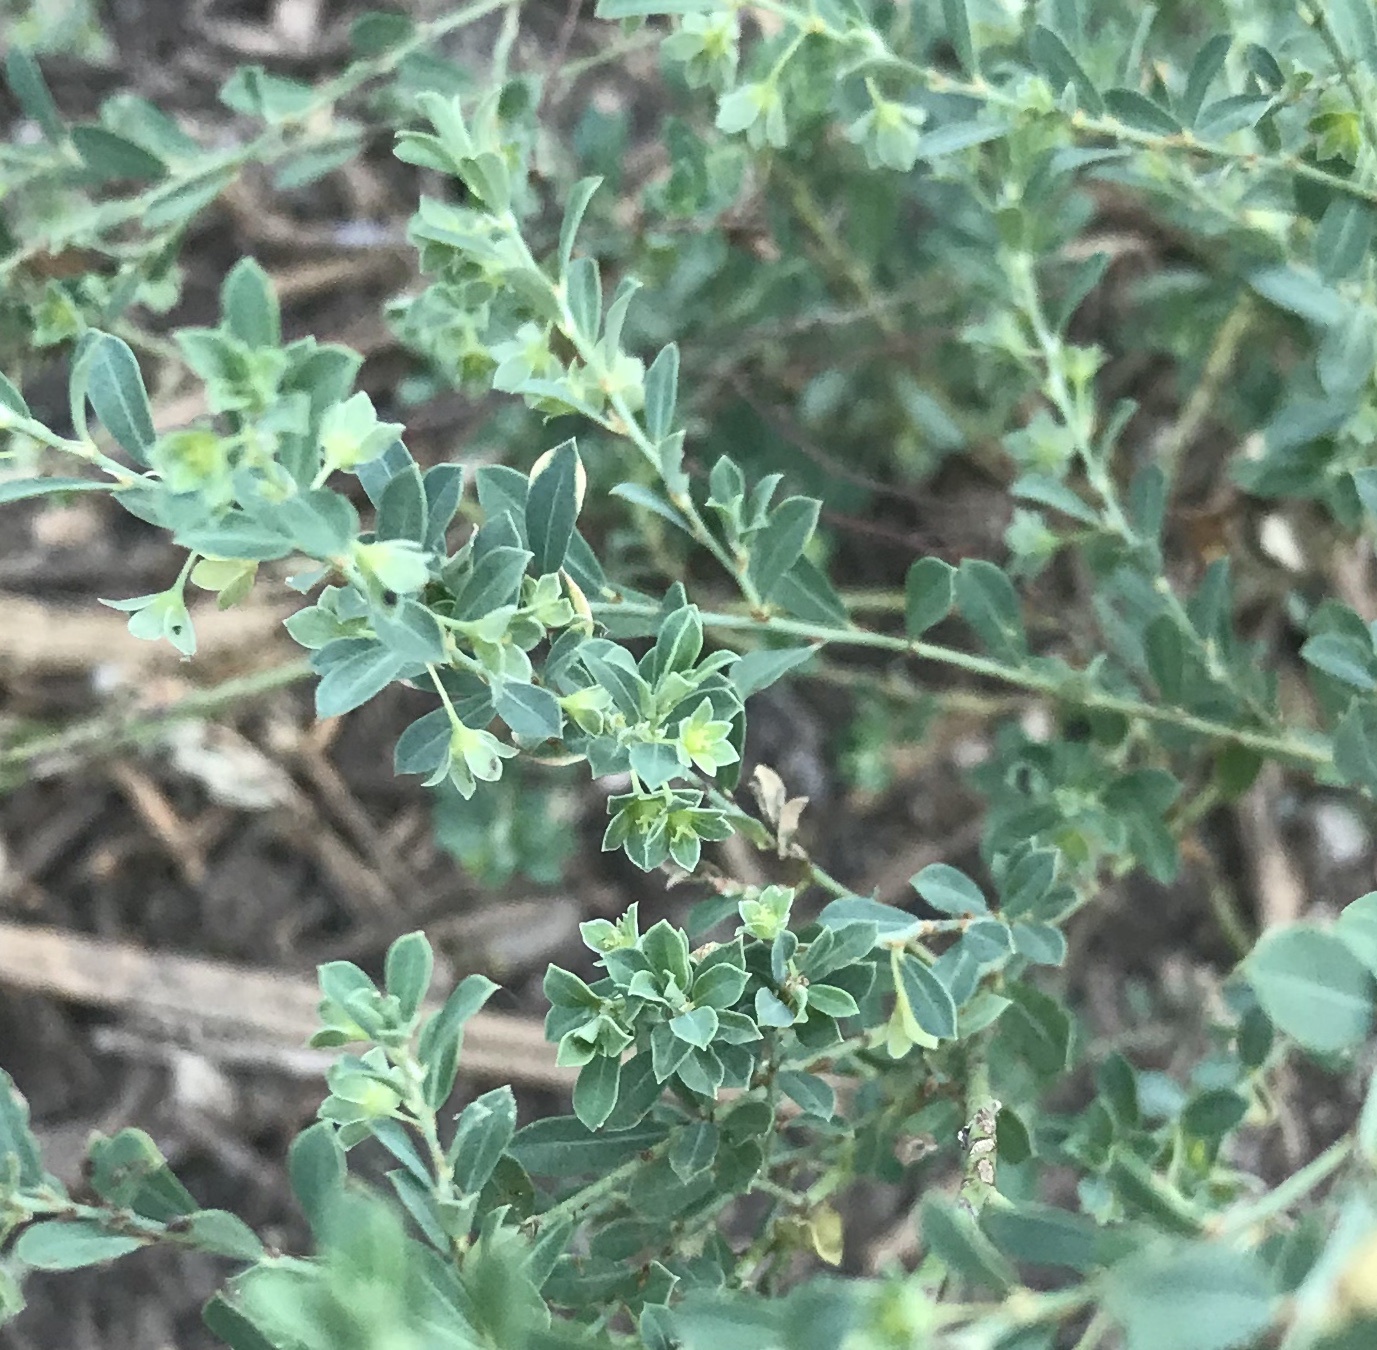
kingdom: Plantae
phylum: Tracheophyta
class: Magnoliopsida
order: Malpighiales
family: Phyllanthaceae
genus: Phyllanthus
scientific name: Phyllanthus polygonoides
